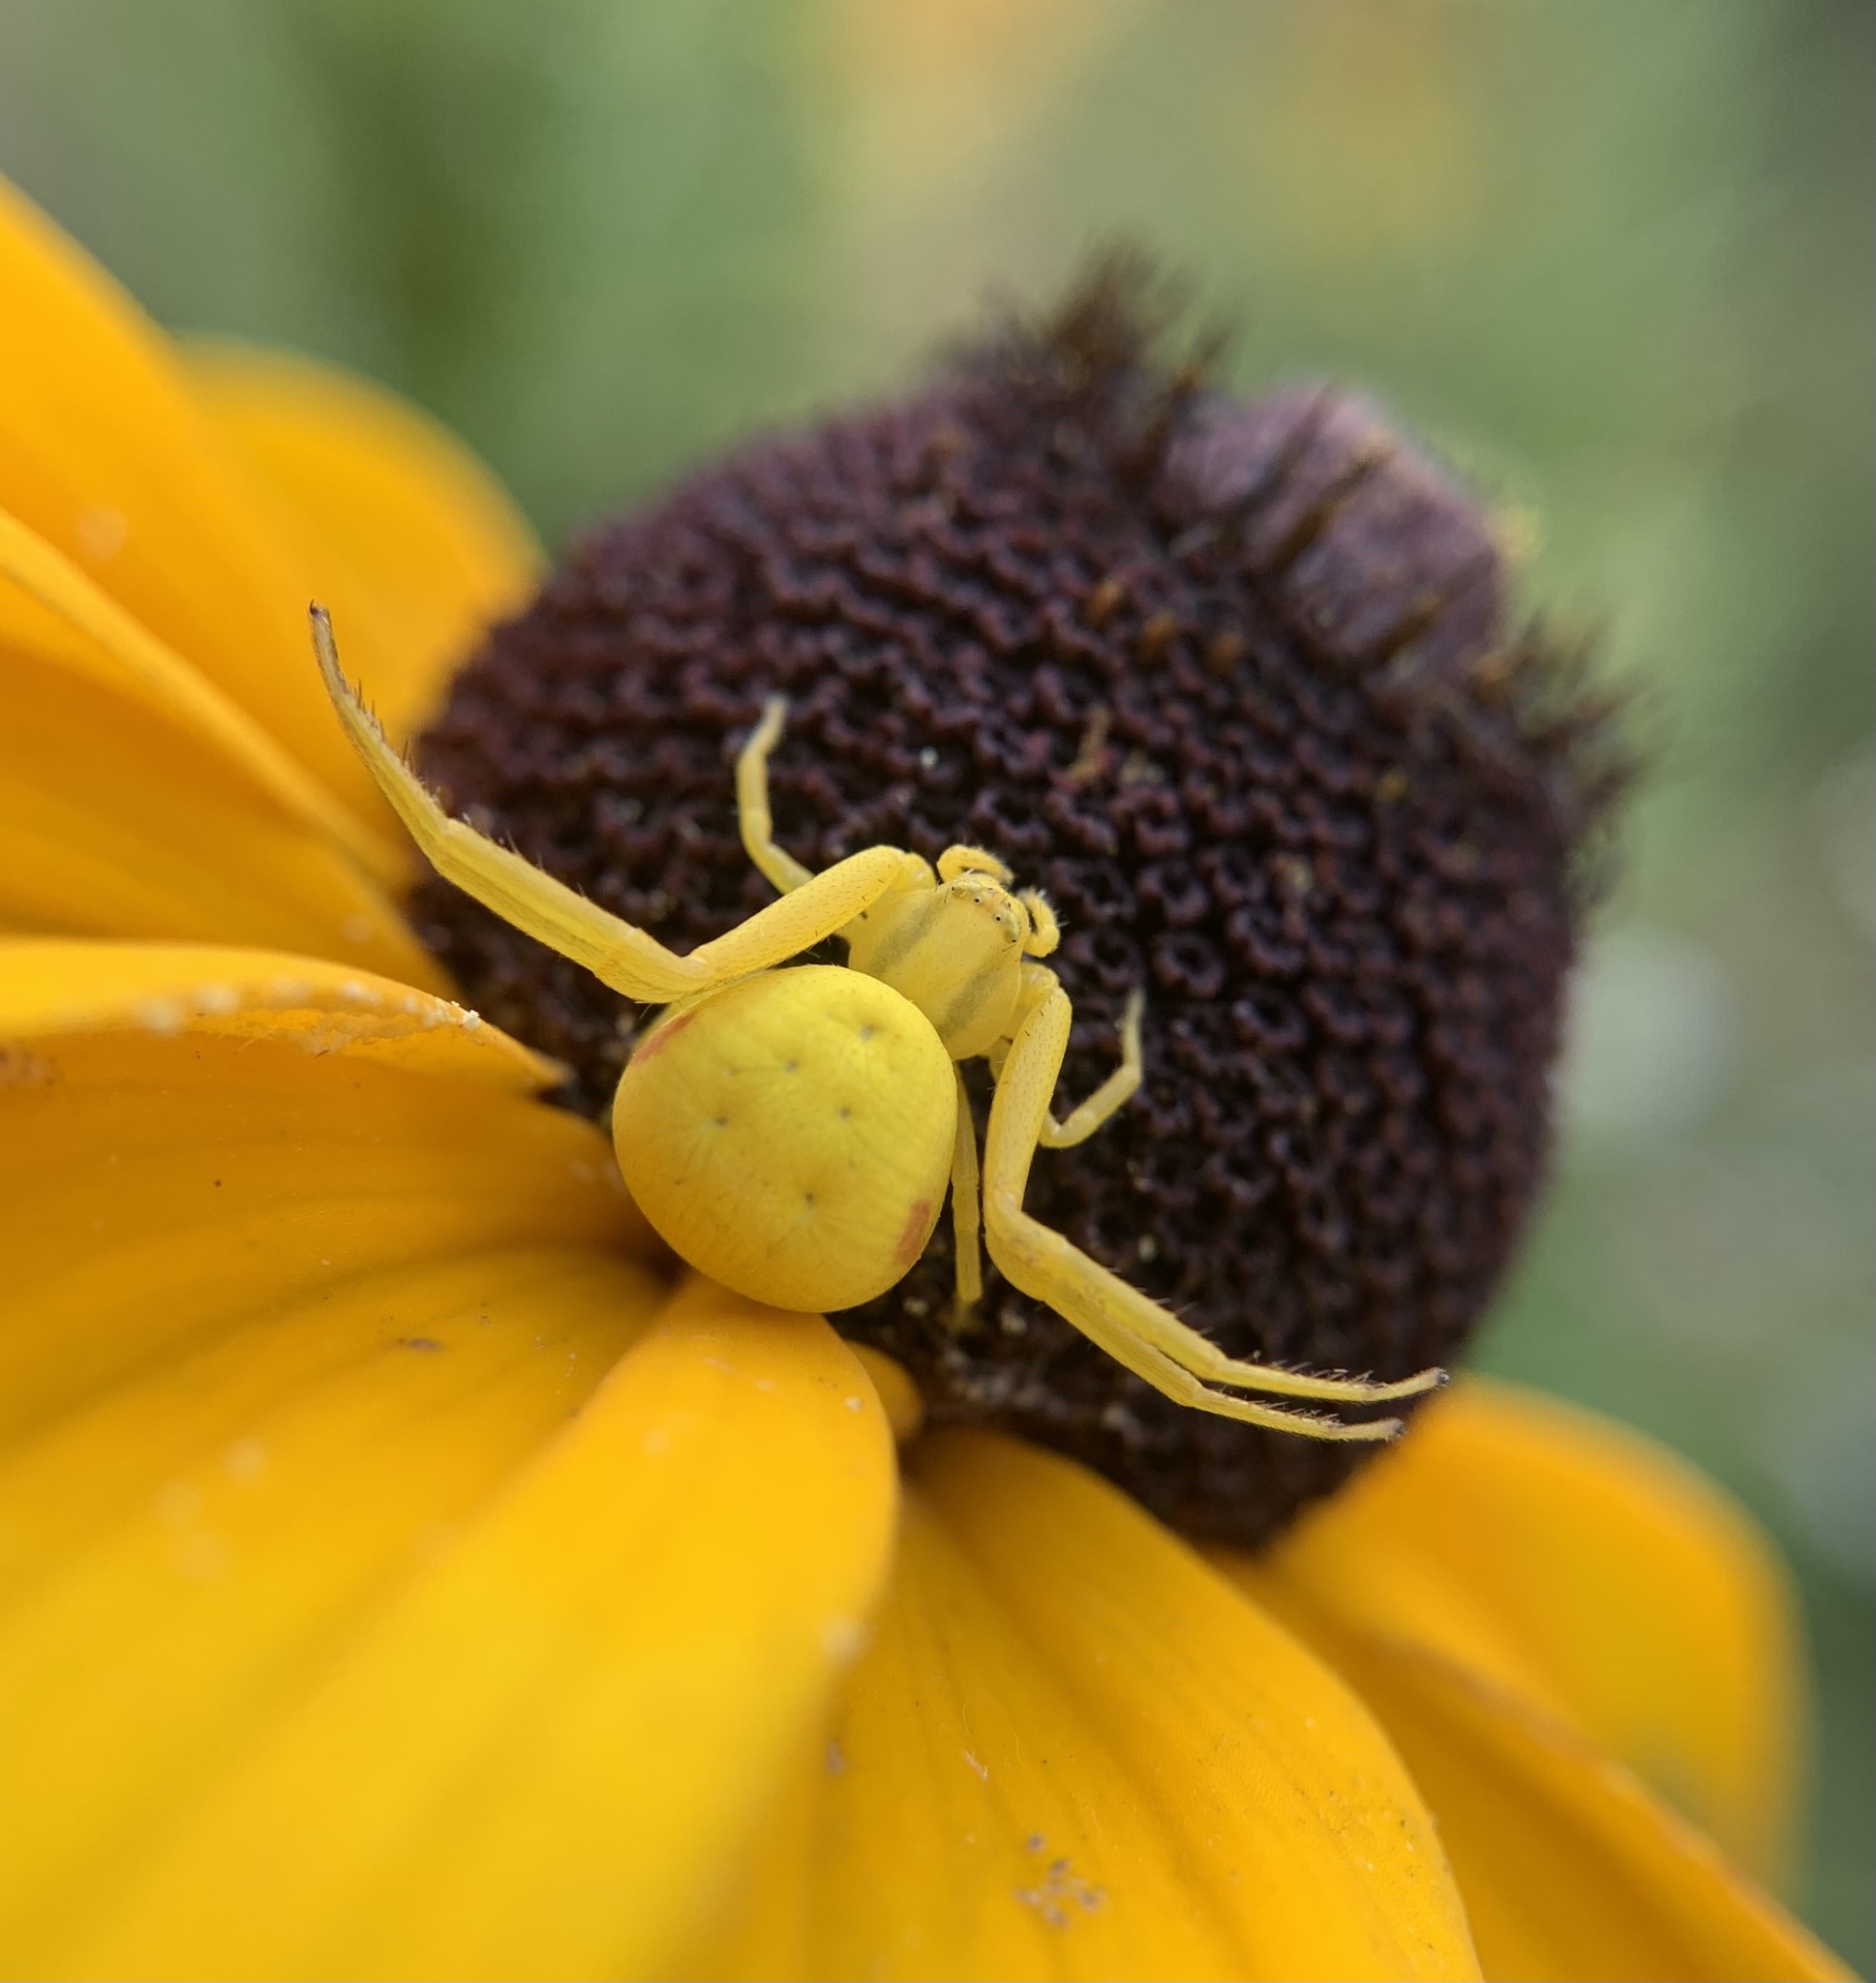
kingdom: Animalia
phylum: Arthropoda
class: Arachnida
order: Araneae
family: Thomisidae
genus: Misumena
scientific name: Misumena vatia
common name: Goldenrod crab spider
